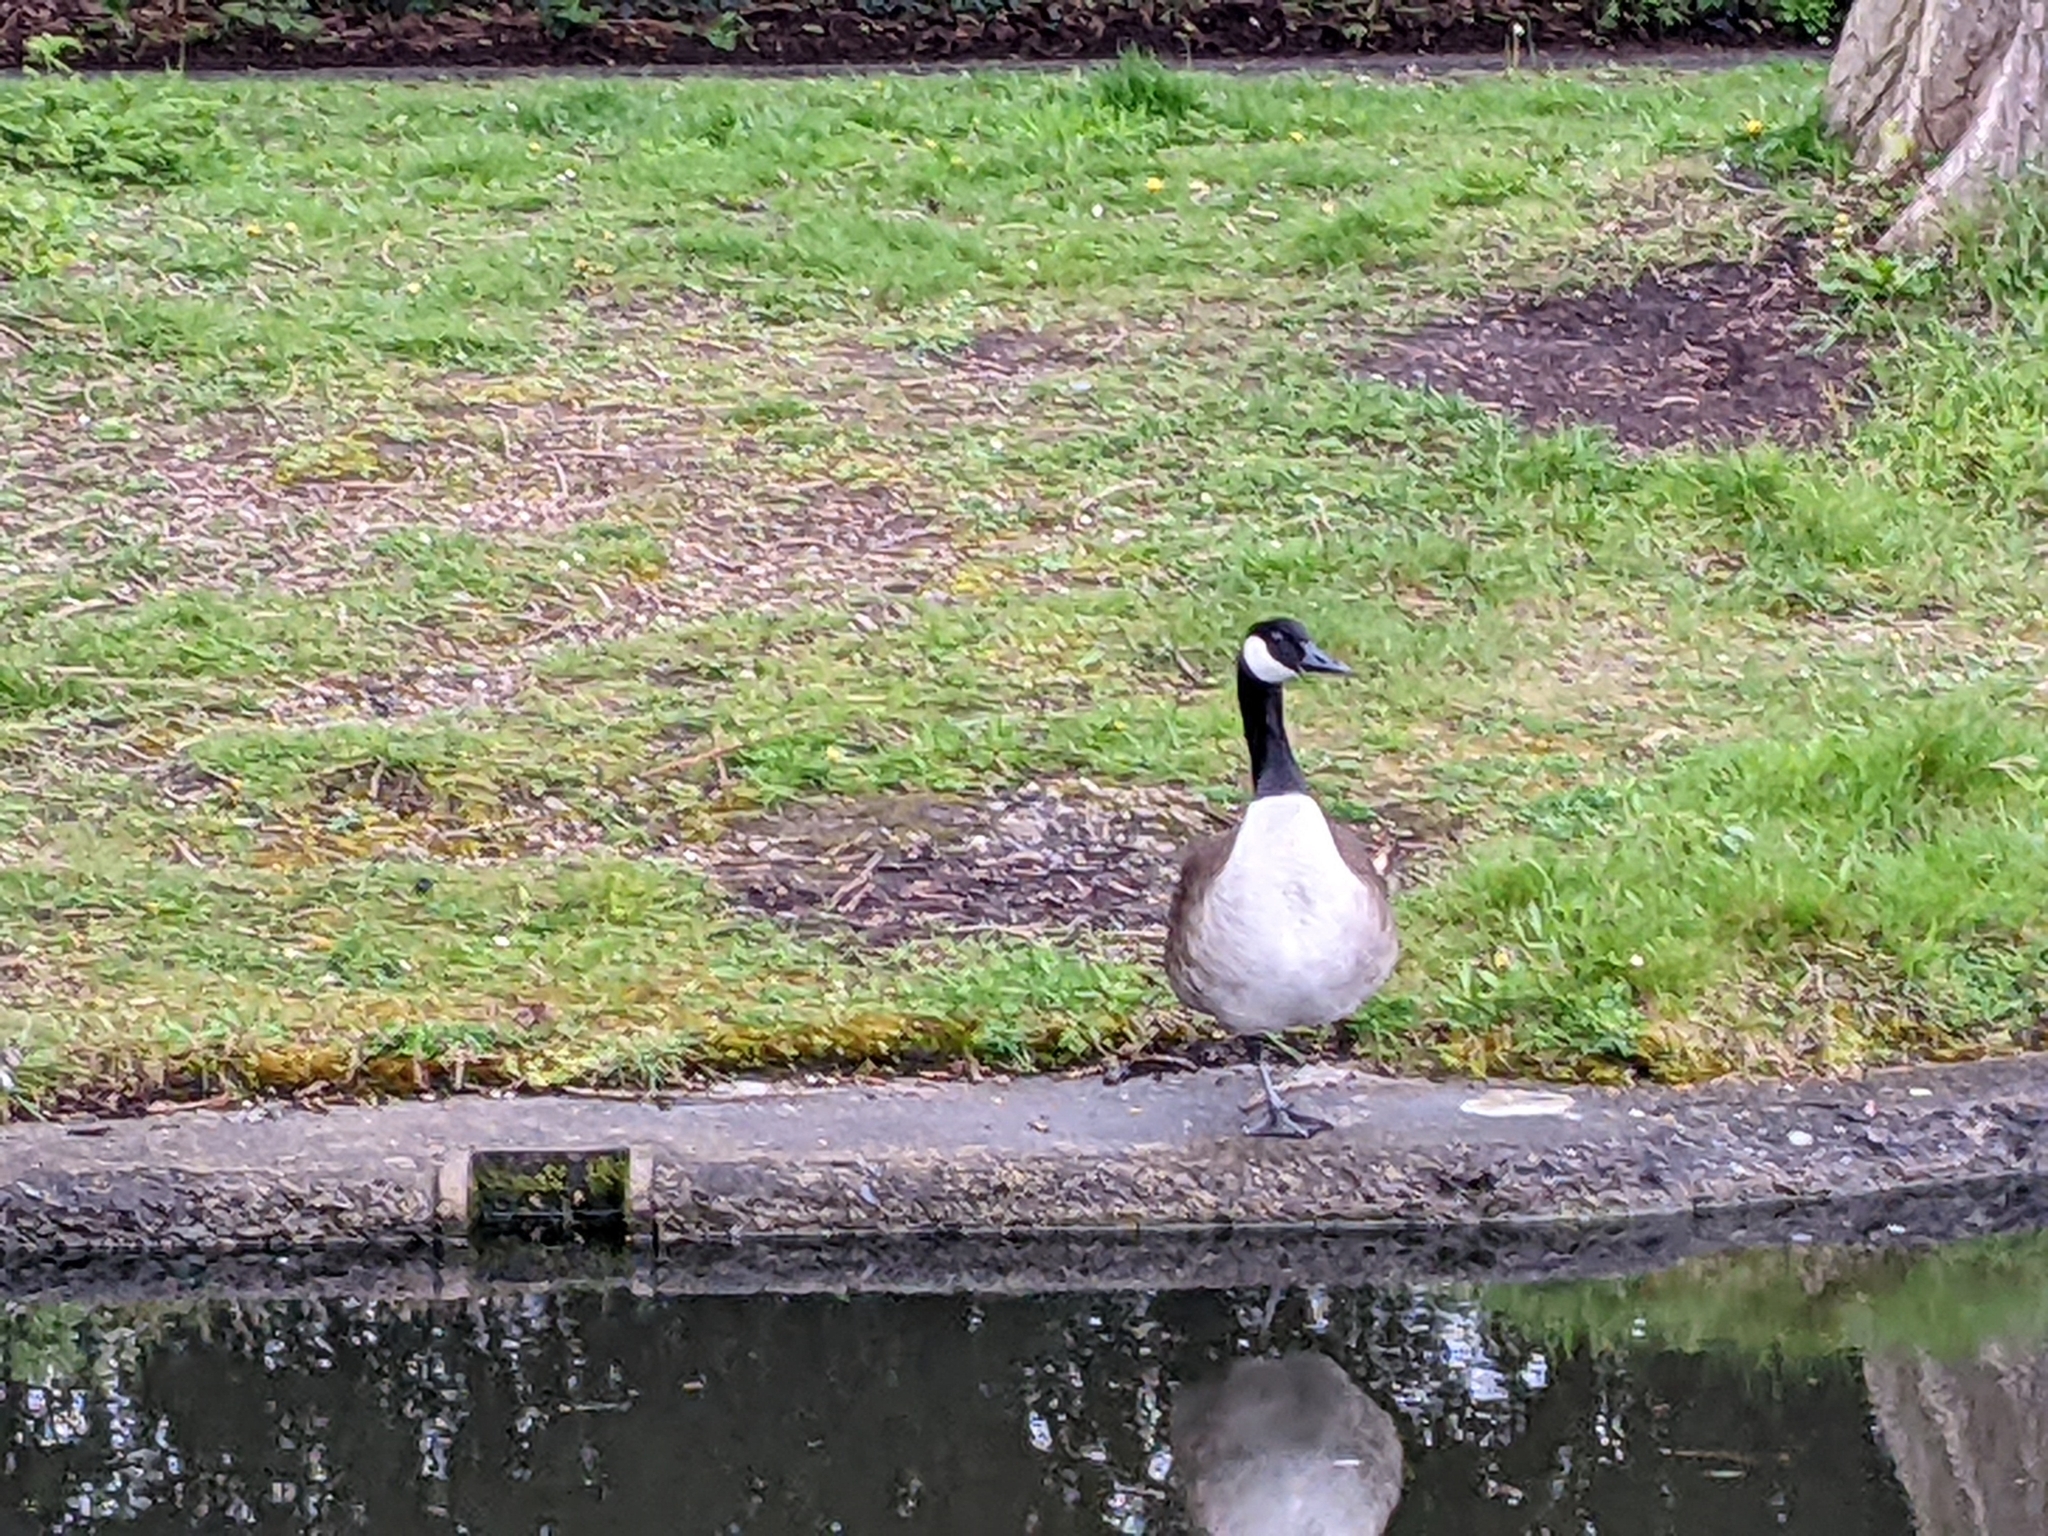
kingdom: Animalia
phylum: Chordata
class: Aves
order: Anseriformes
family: Anatidae
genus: Branta
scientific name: Branta canadensis
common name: Canada goose
